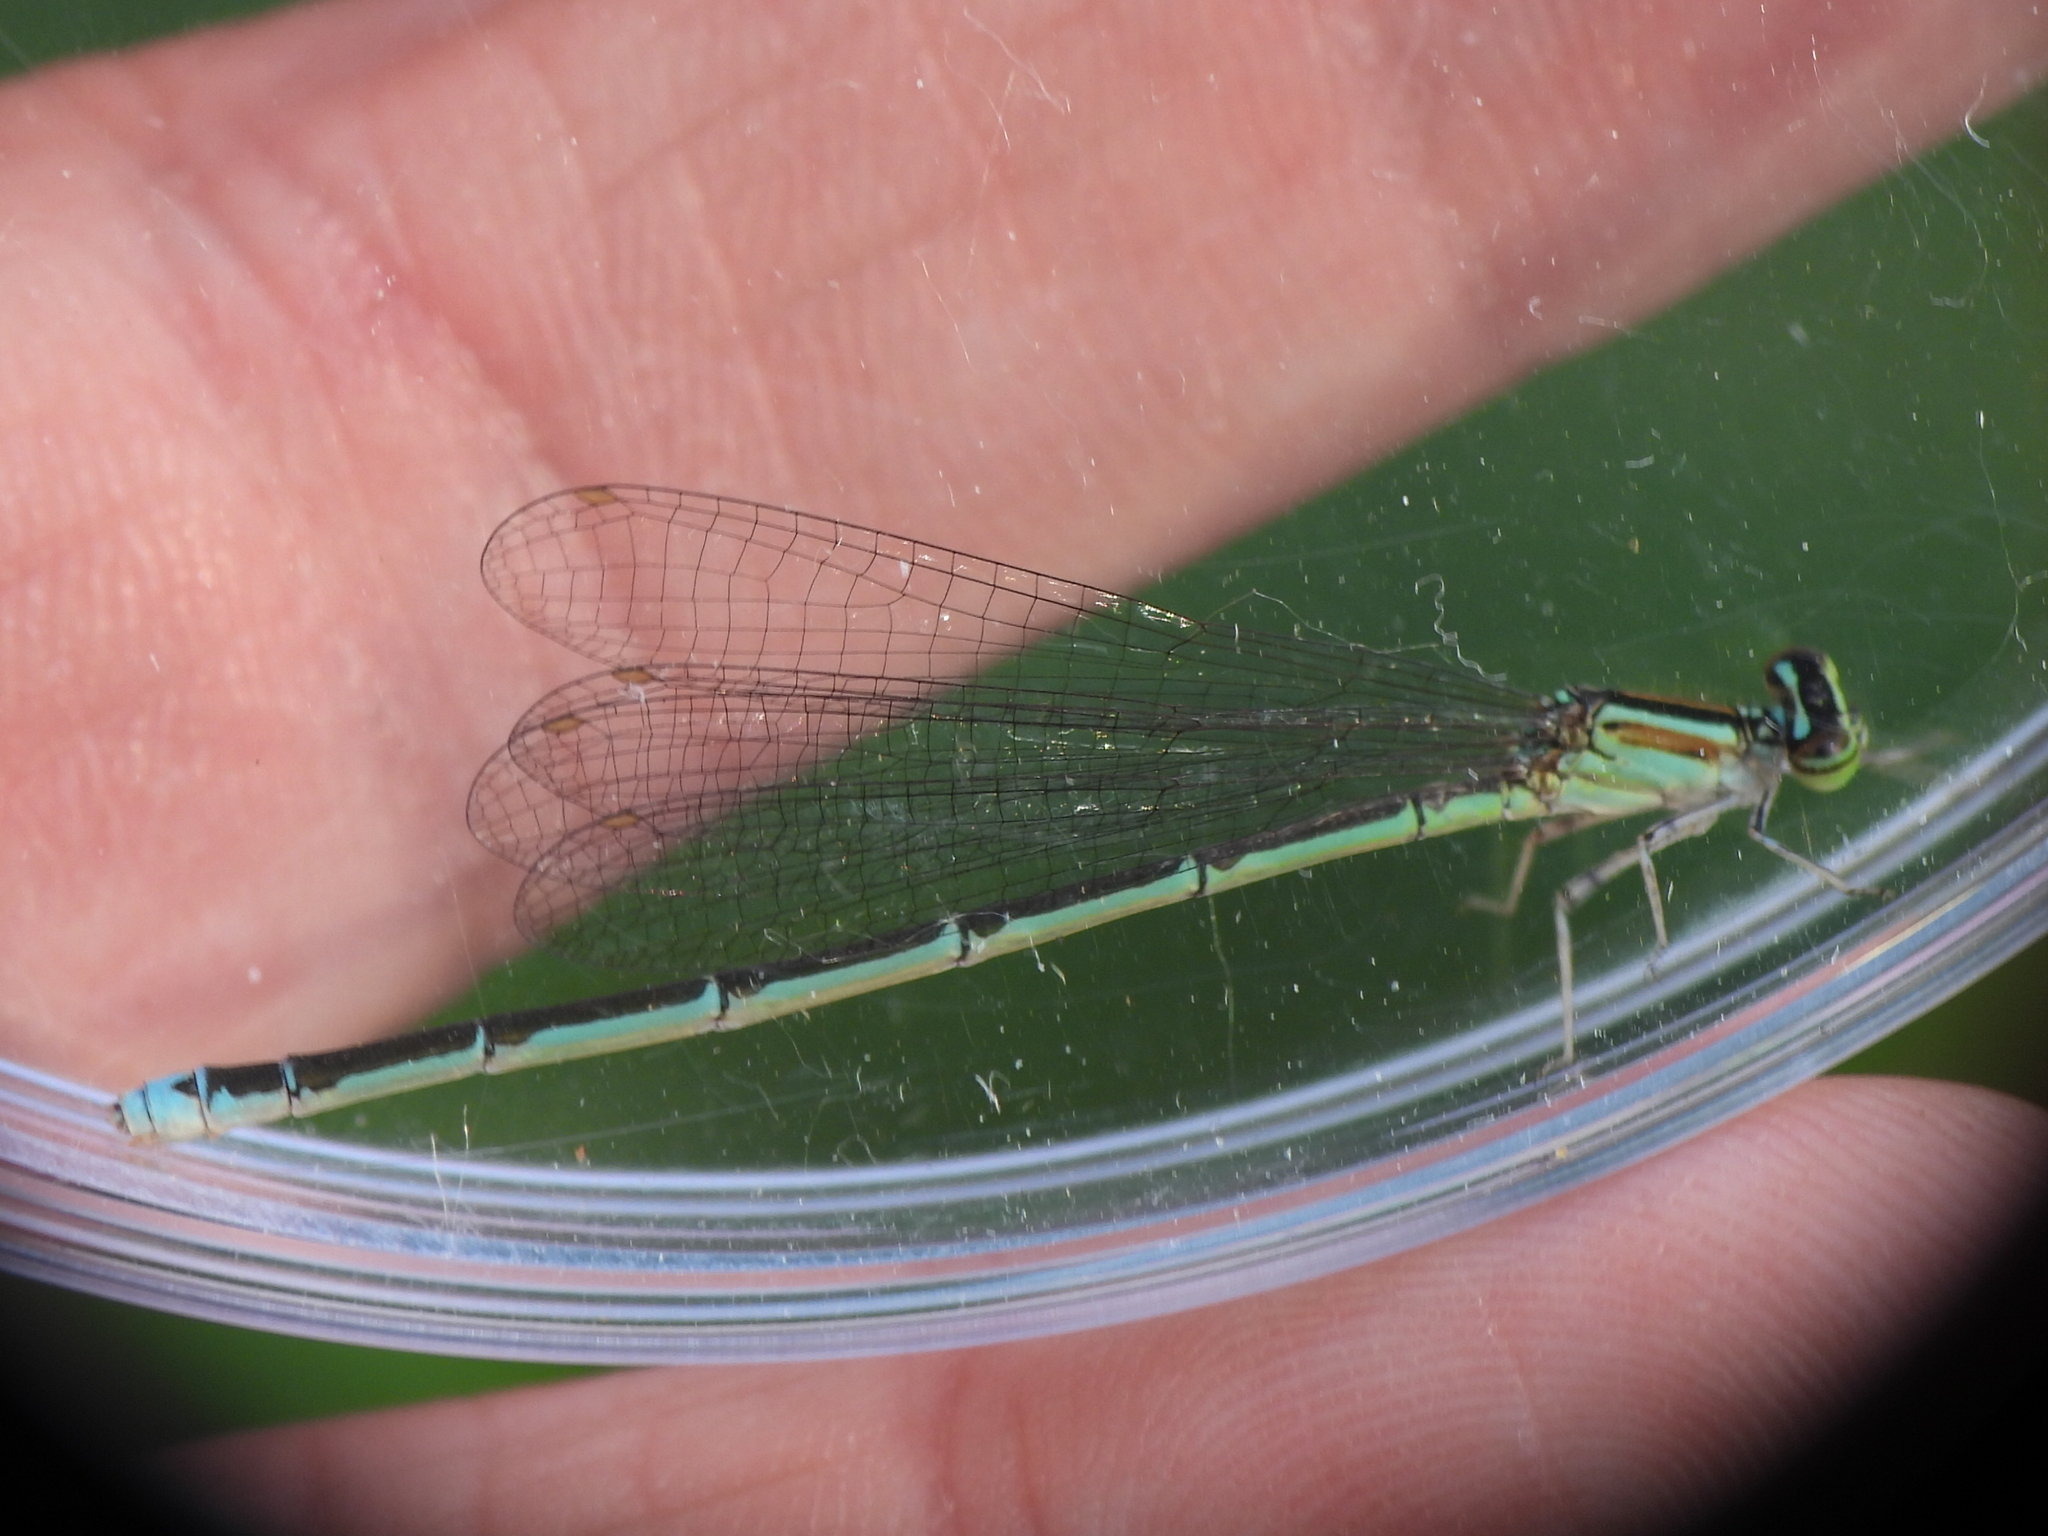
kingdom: Animalia
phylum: Arthropoda
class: Insecta
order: Odonata
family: Coenagrionidae
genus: Enallagma
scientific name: Enallagma exsulans
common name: Stream bluet
